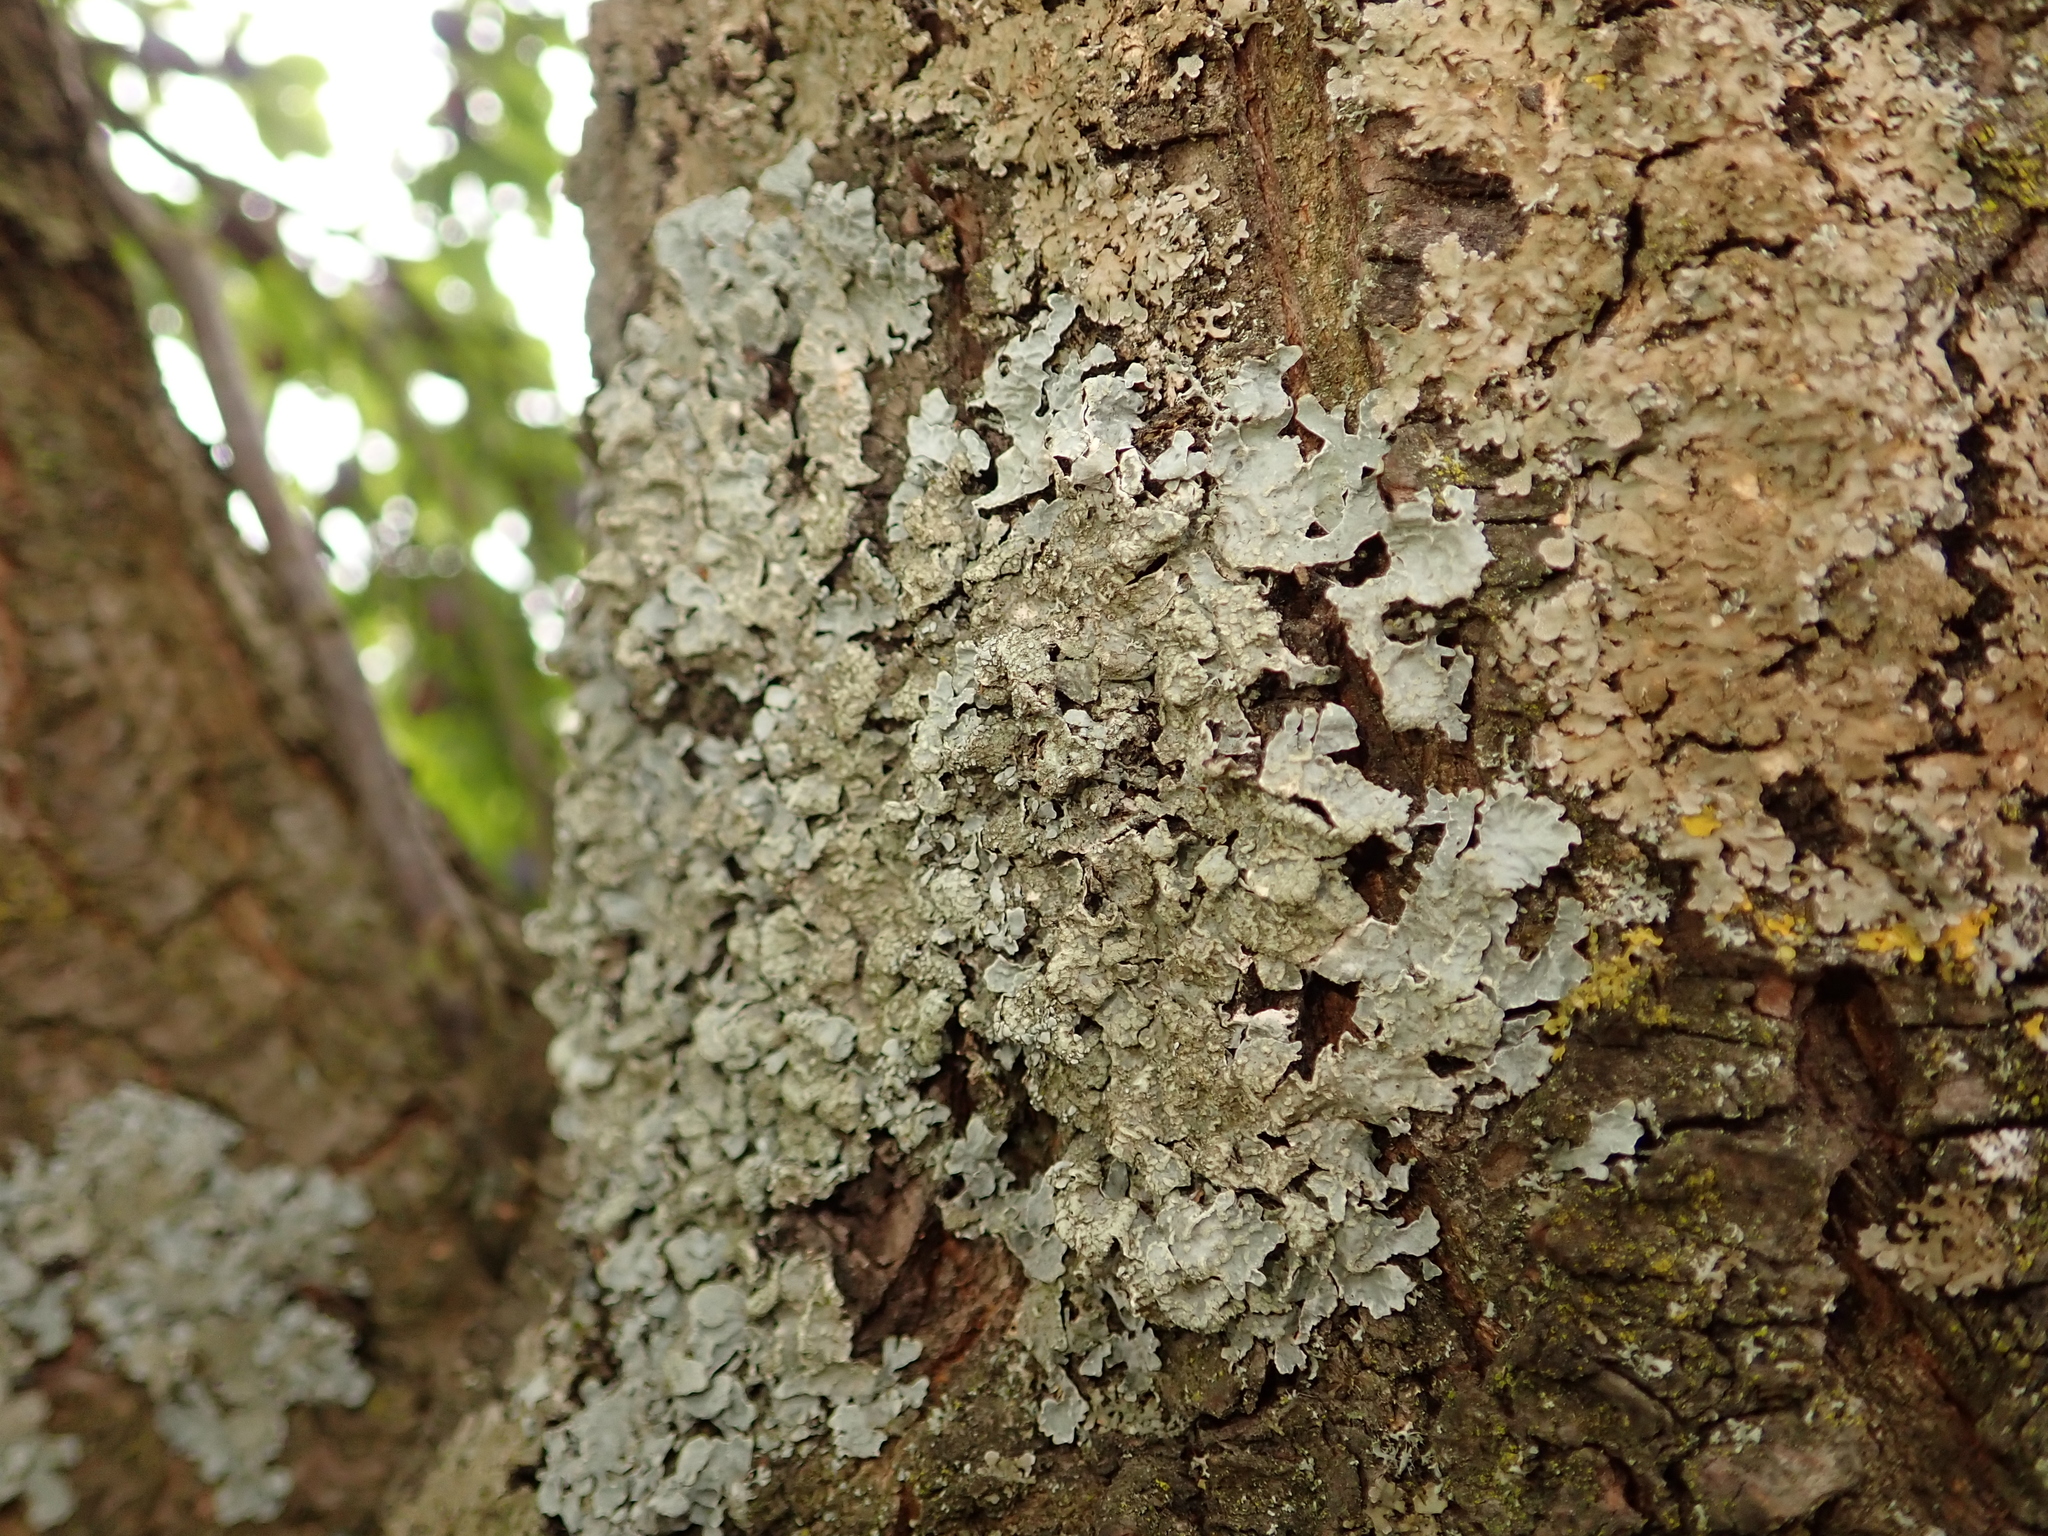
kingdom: Fungi
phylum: Ascomycota
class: Lecanoromycetes
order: Lecanorales
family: Parmeliaceae
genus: Parmelia
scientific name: Parmelia sulcata
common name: Netted shield lichen
